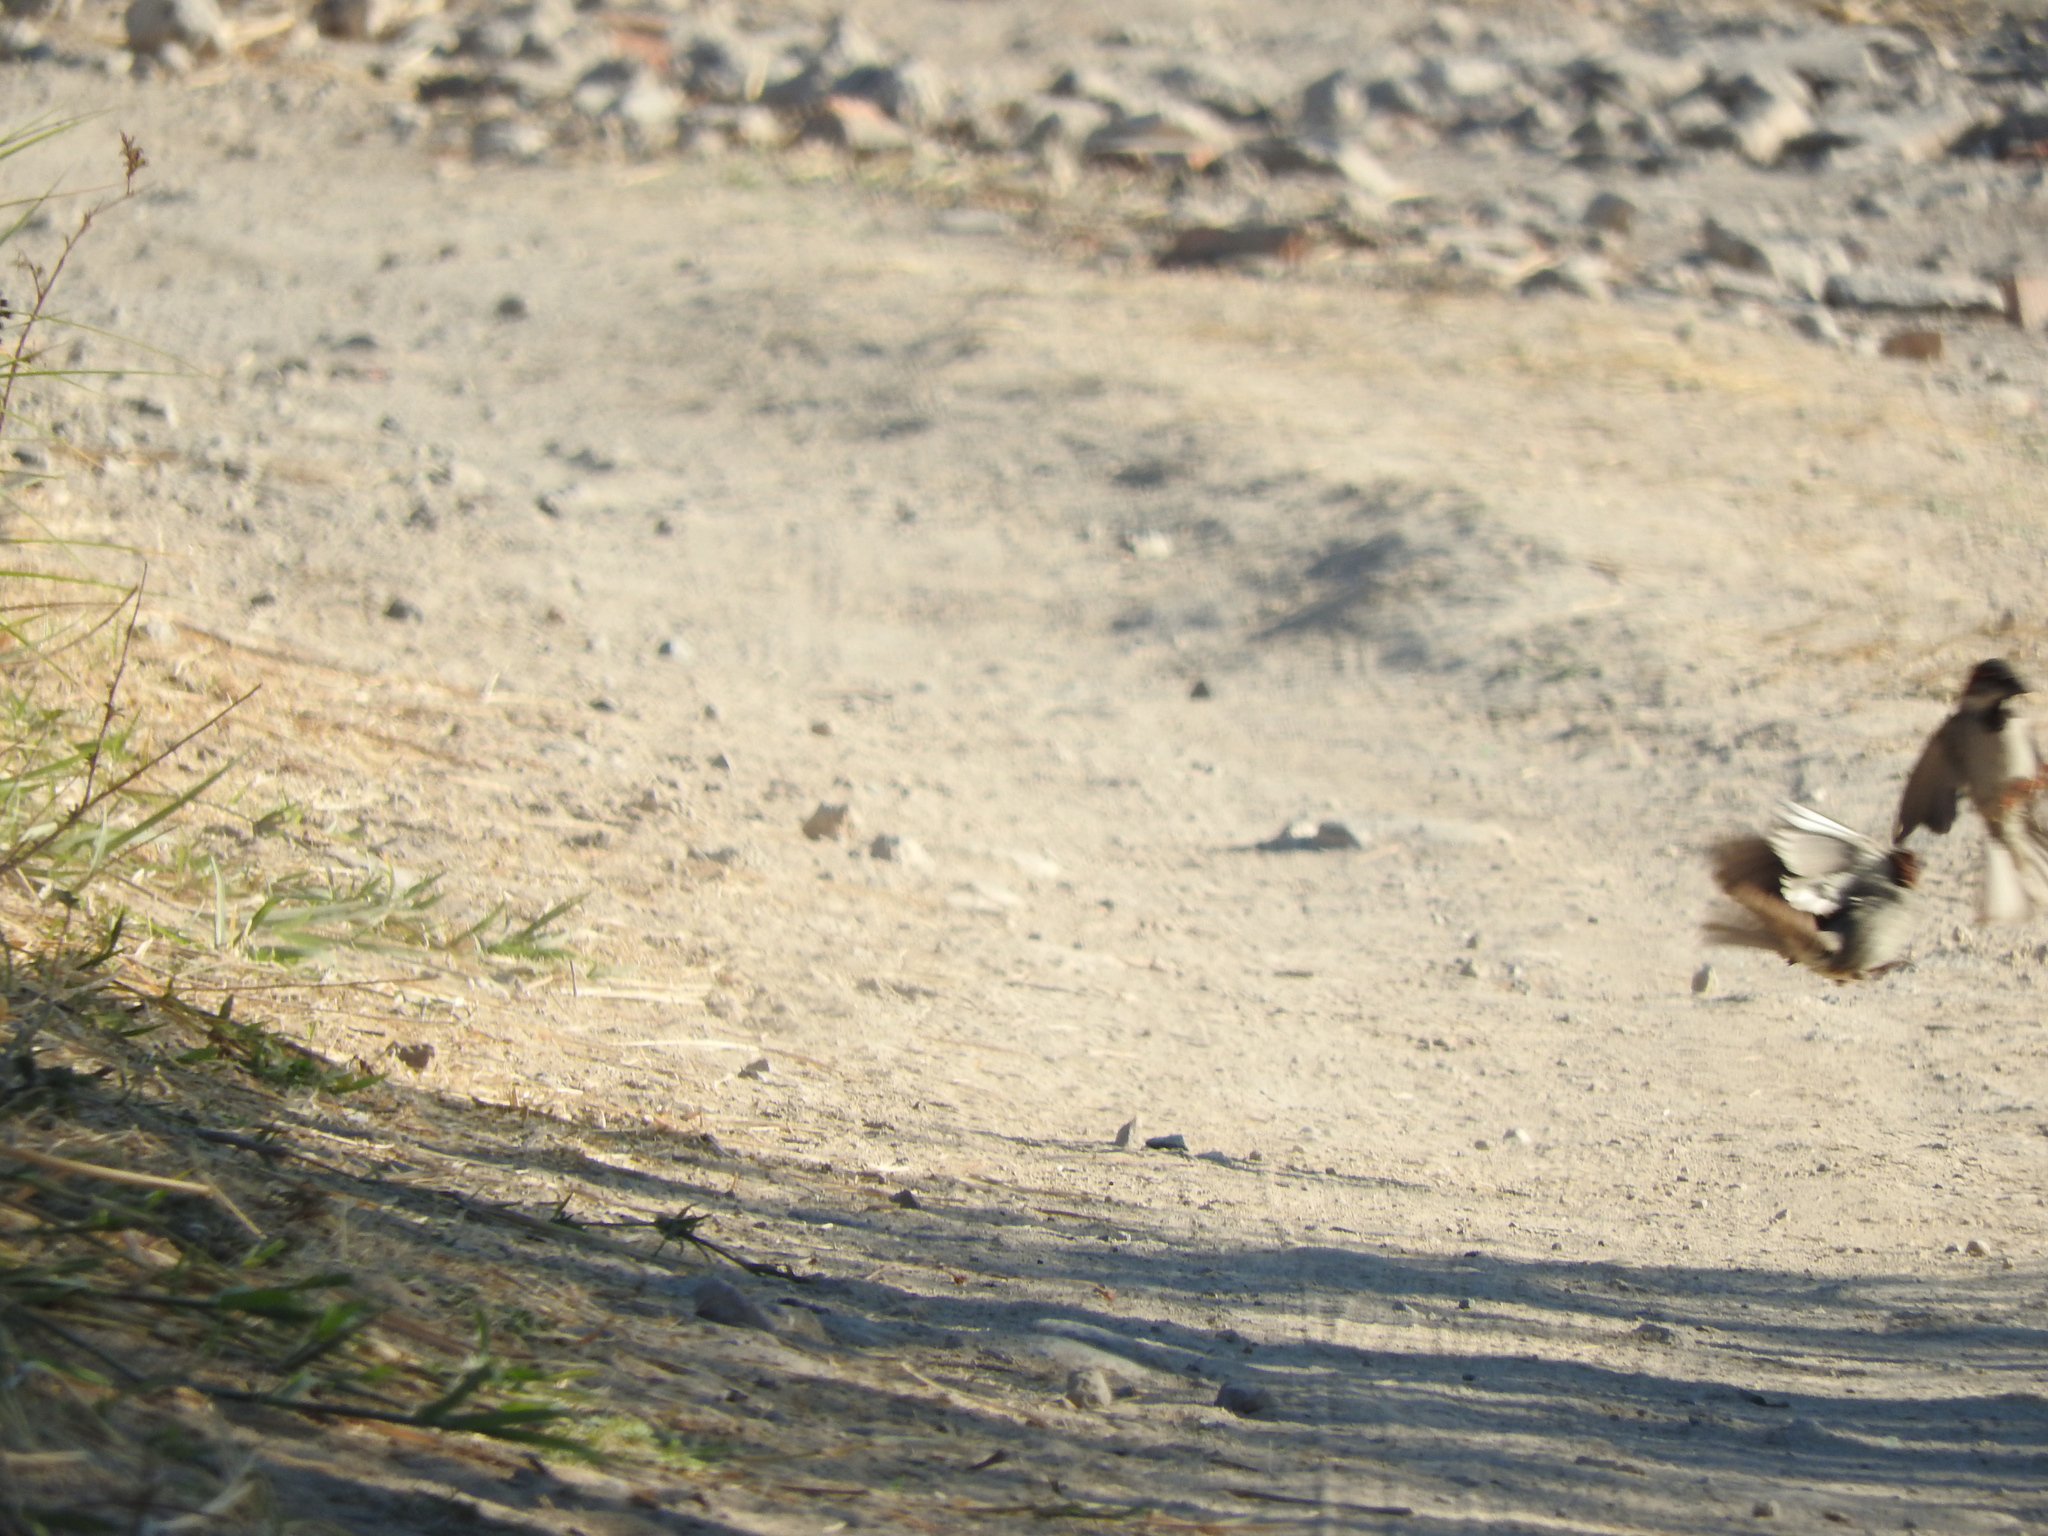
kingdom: Animalia
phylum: Chordata
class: Aves
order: Passeriformes
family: Passeridae
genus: Passer
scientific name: Passer domesticus
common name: House sparrow
